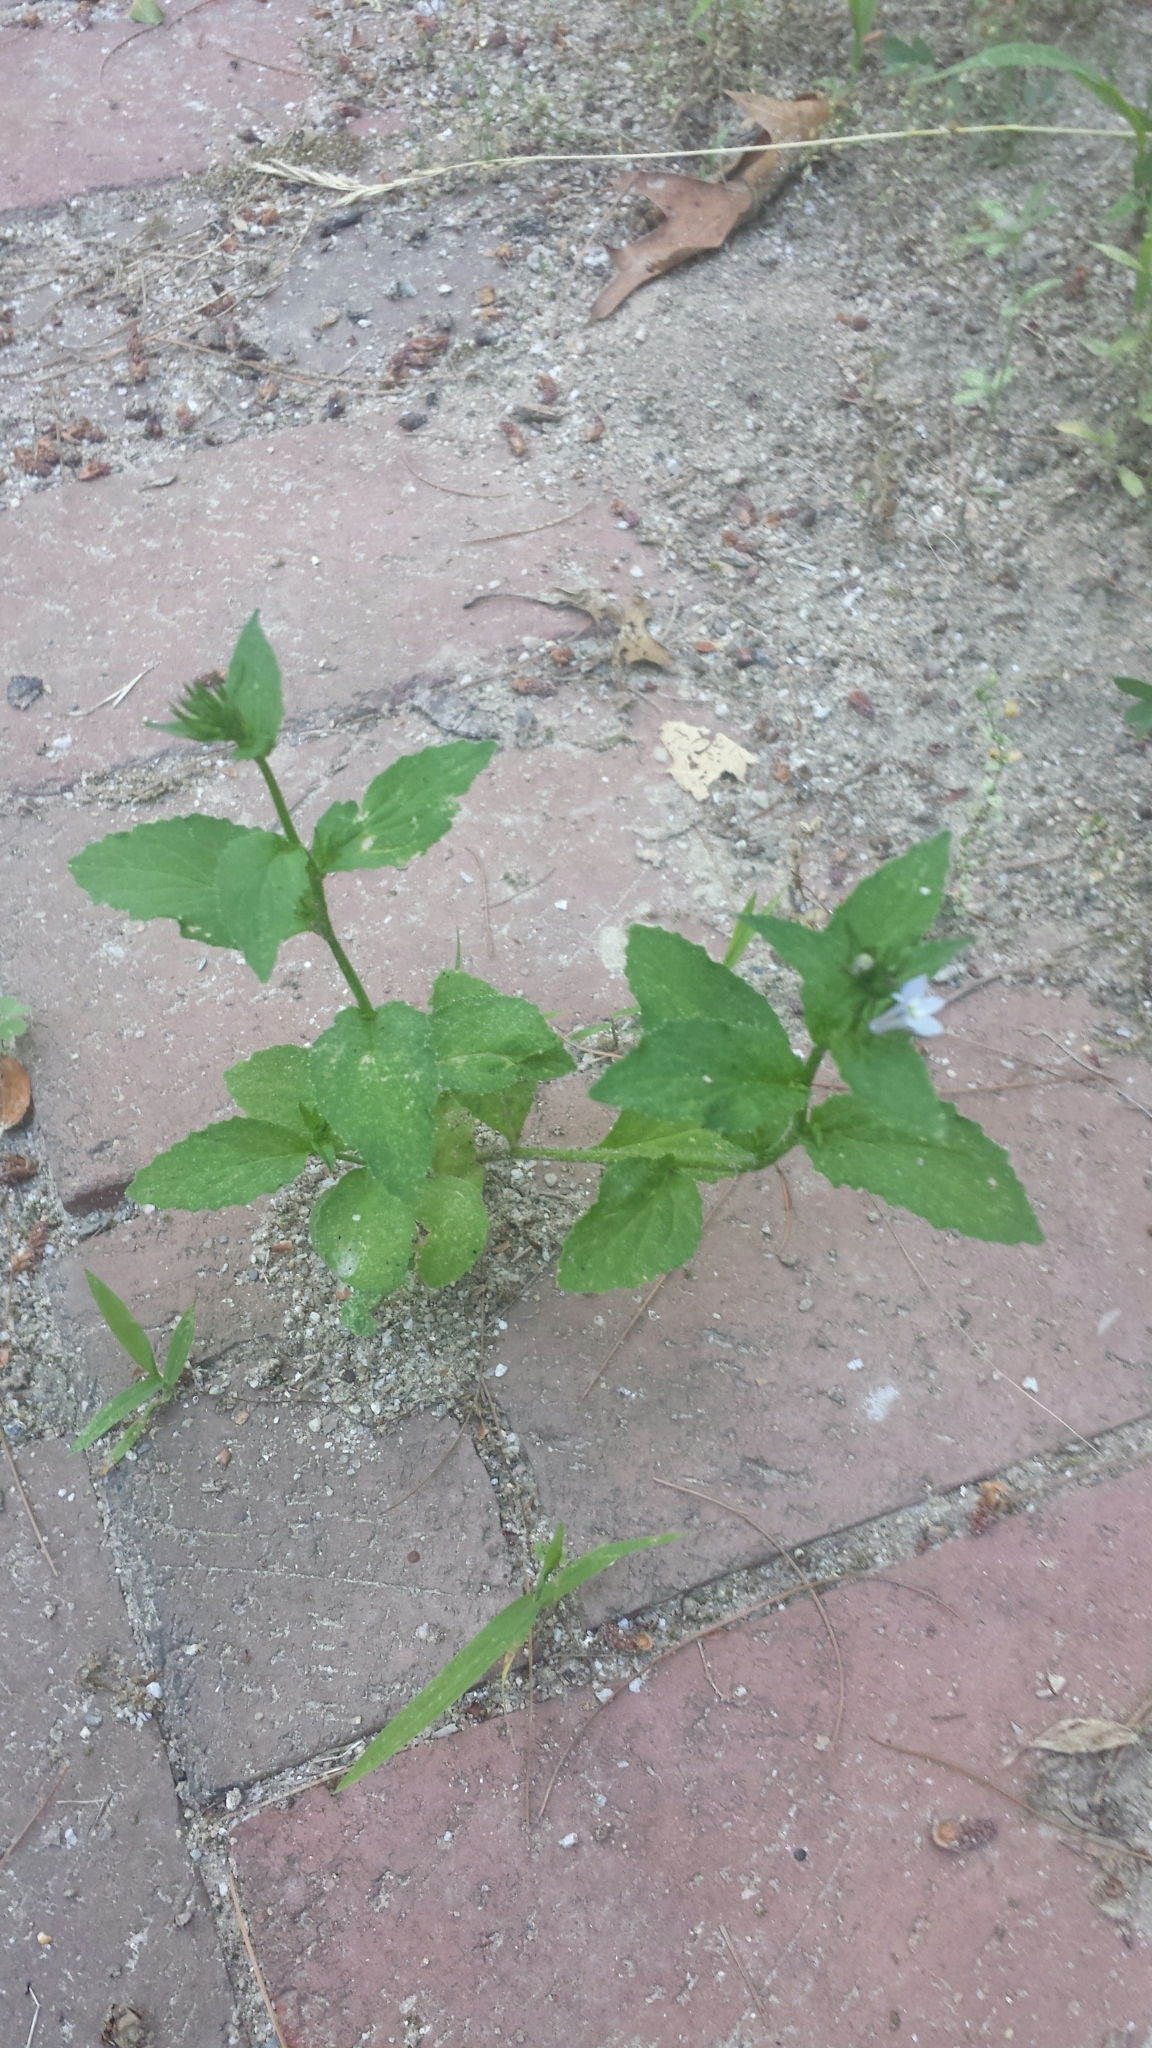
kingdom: Plantae
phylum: Tracheophyta
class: Magnoliopsida
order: Asterales
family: Campanulaceae
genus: Lobelia
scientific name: Lobelia inflata
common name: Indian tobacco
